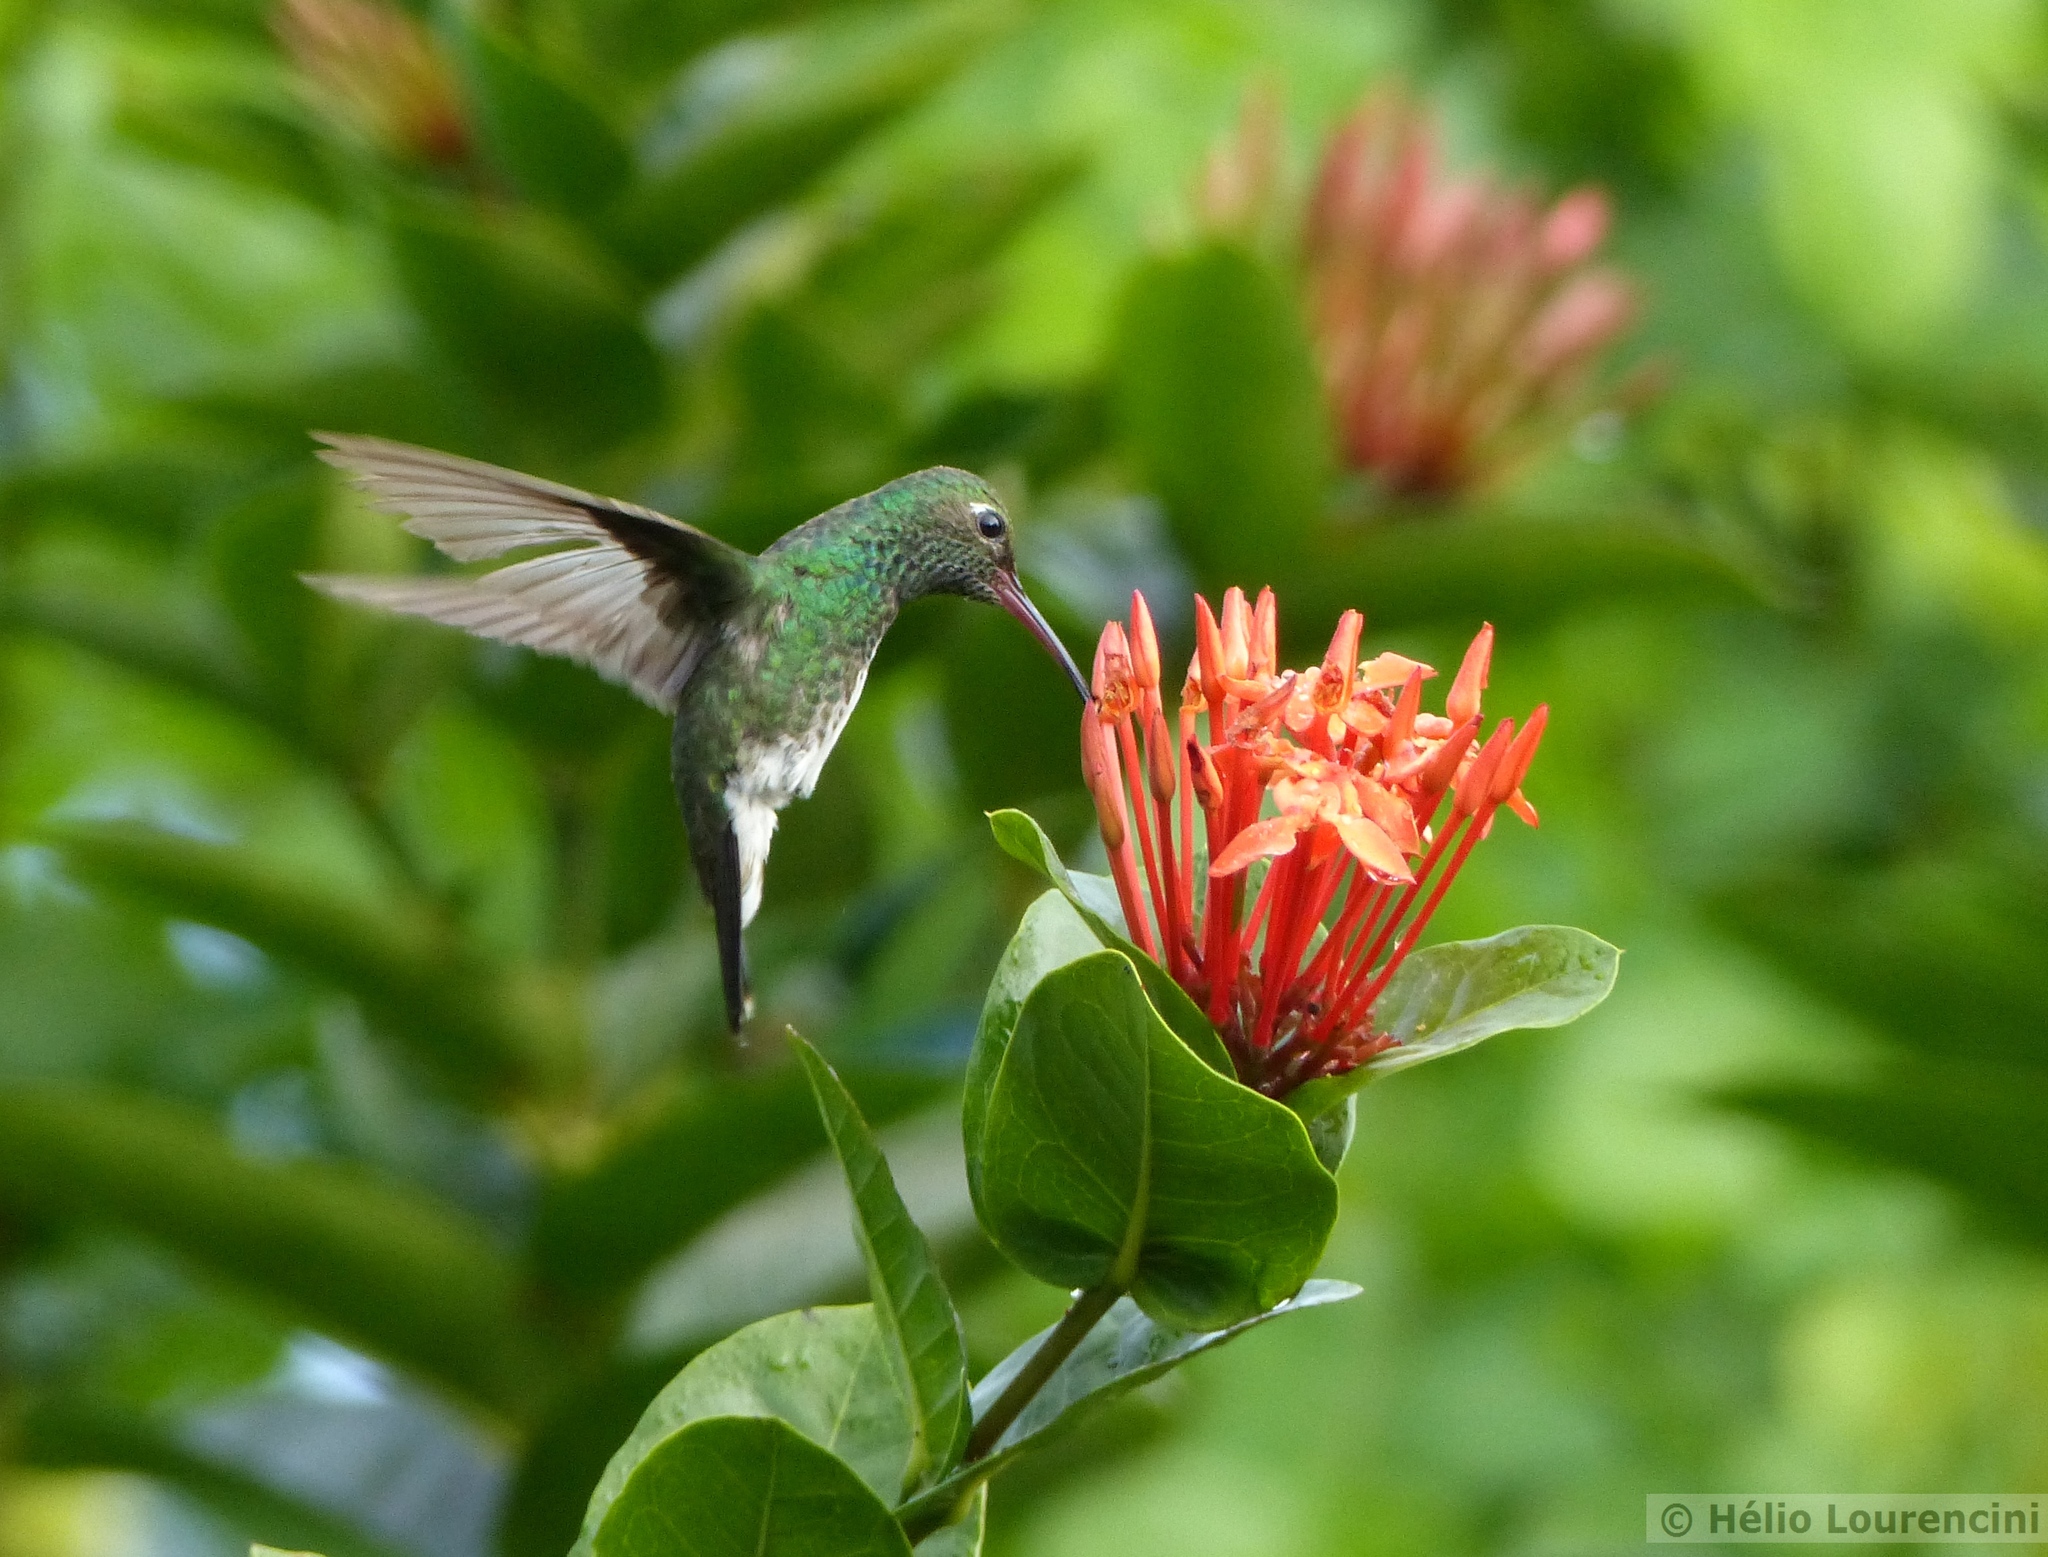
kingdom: Animalia
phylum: Chordata
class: Aves
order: Apodiformes
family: Trochilidae
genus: Chionomesa
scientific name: Chionomesa fimbriata
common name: Glittering-throated emerald
